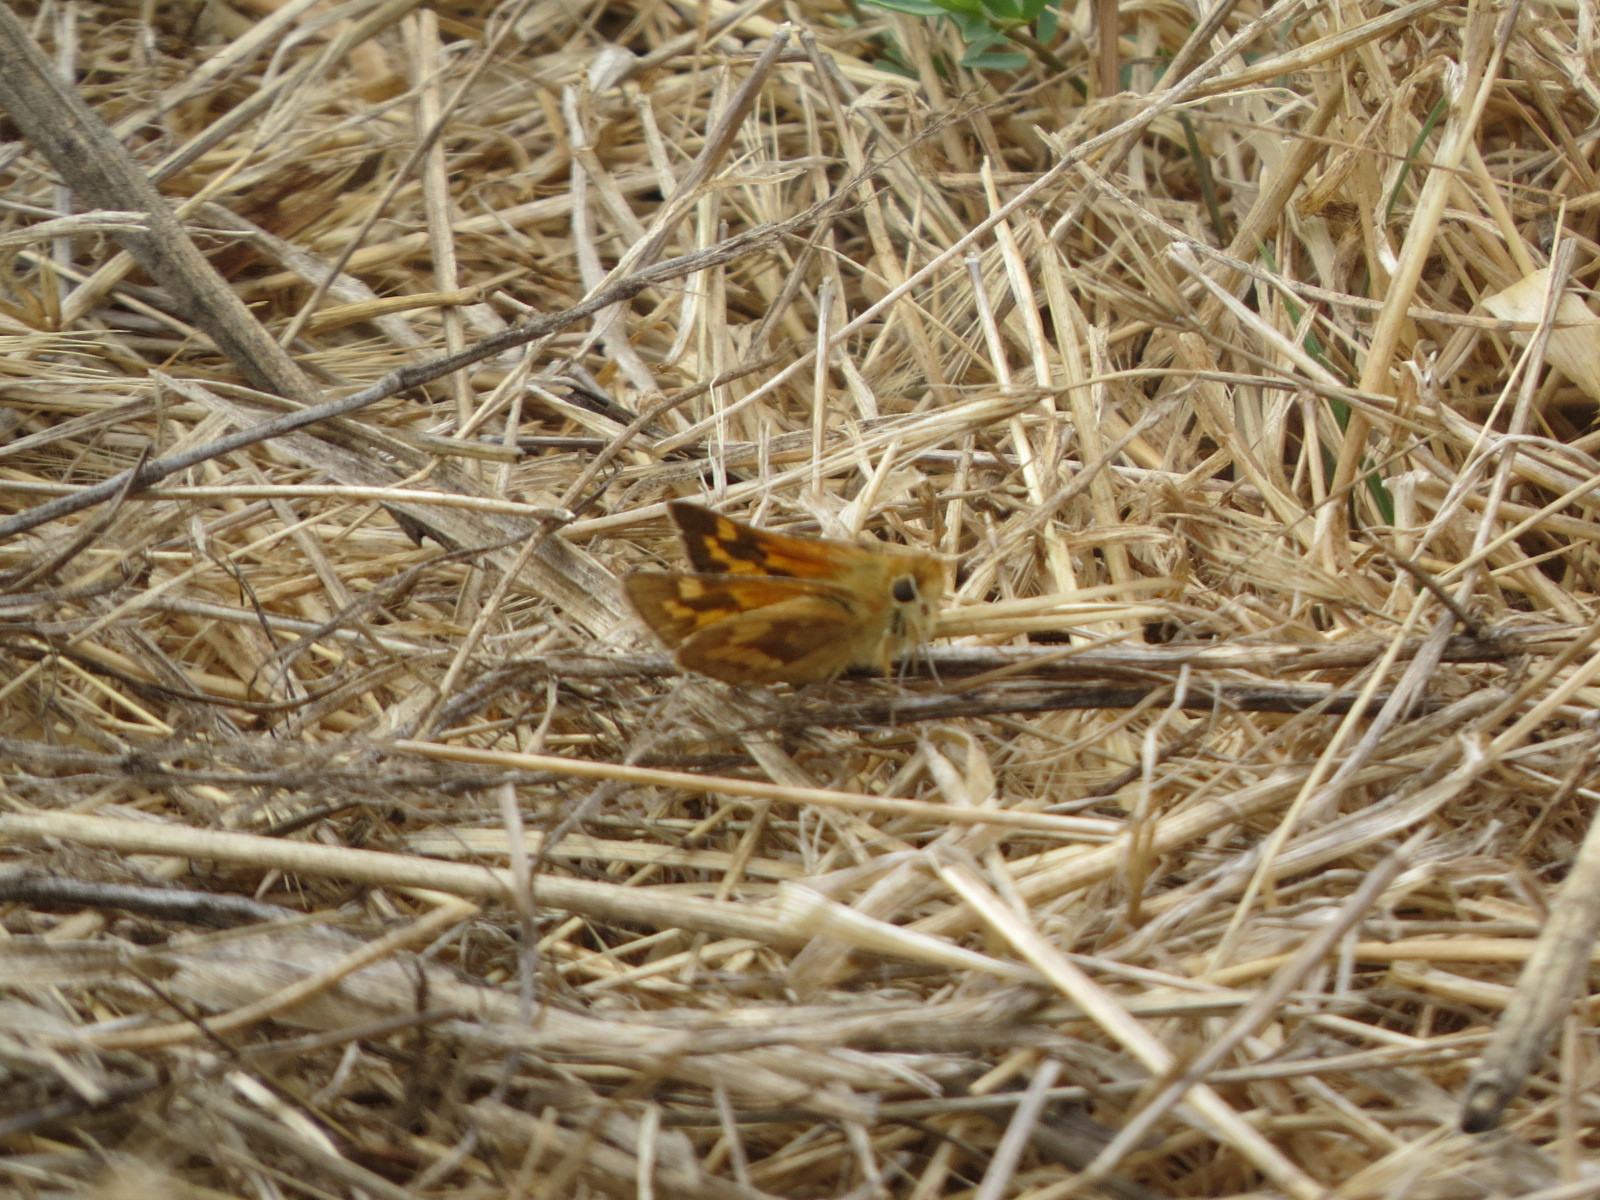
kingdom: Animalia
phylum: Arthropoda
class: Insecta
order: Lepidoptera
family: Hesperiidae
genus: Ochlodes
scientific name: Ochlodes sylvanoides
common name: Woodland skipper
